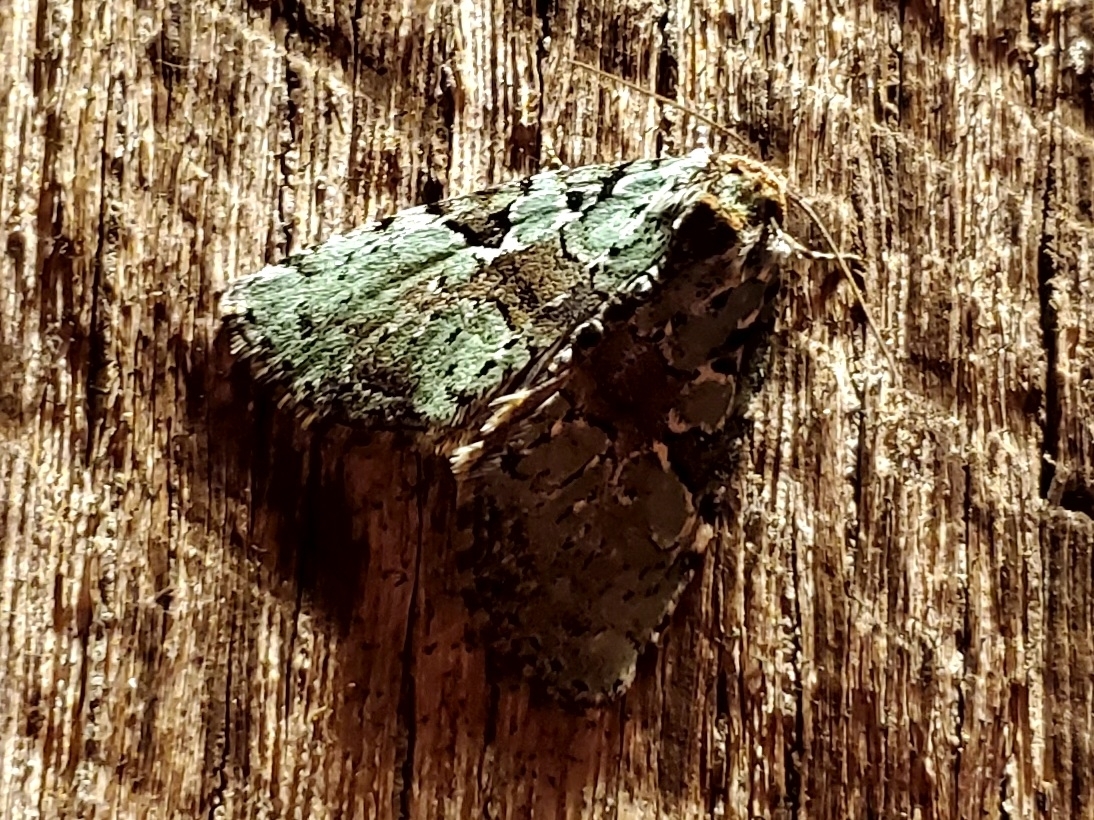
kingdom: Animalia
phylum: Arthropoda
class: Insecta
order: Lepidoptera
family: Noctuidae
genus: Leuconycta
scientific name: Leuconycta lepidula
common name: Marbled-green leuconycta moth
